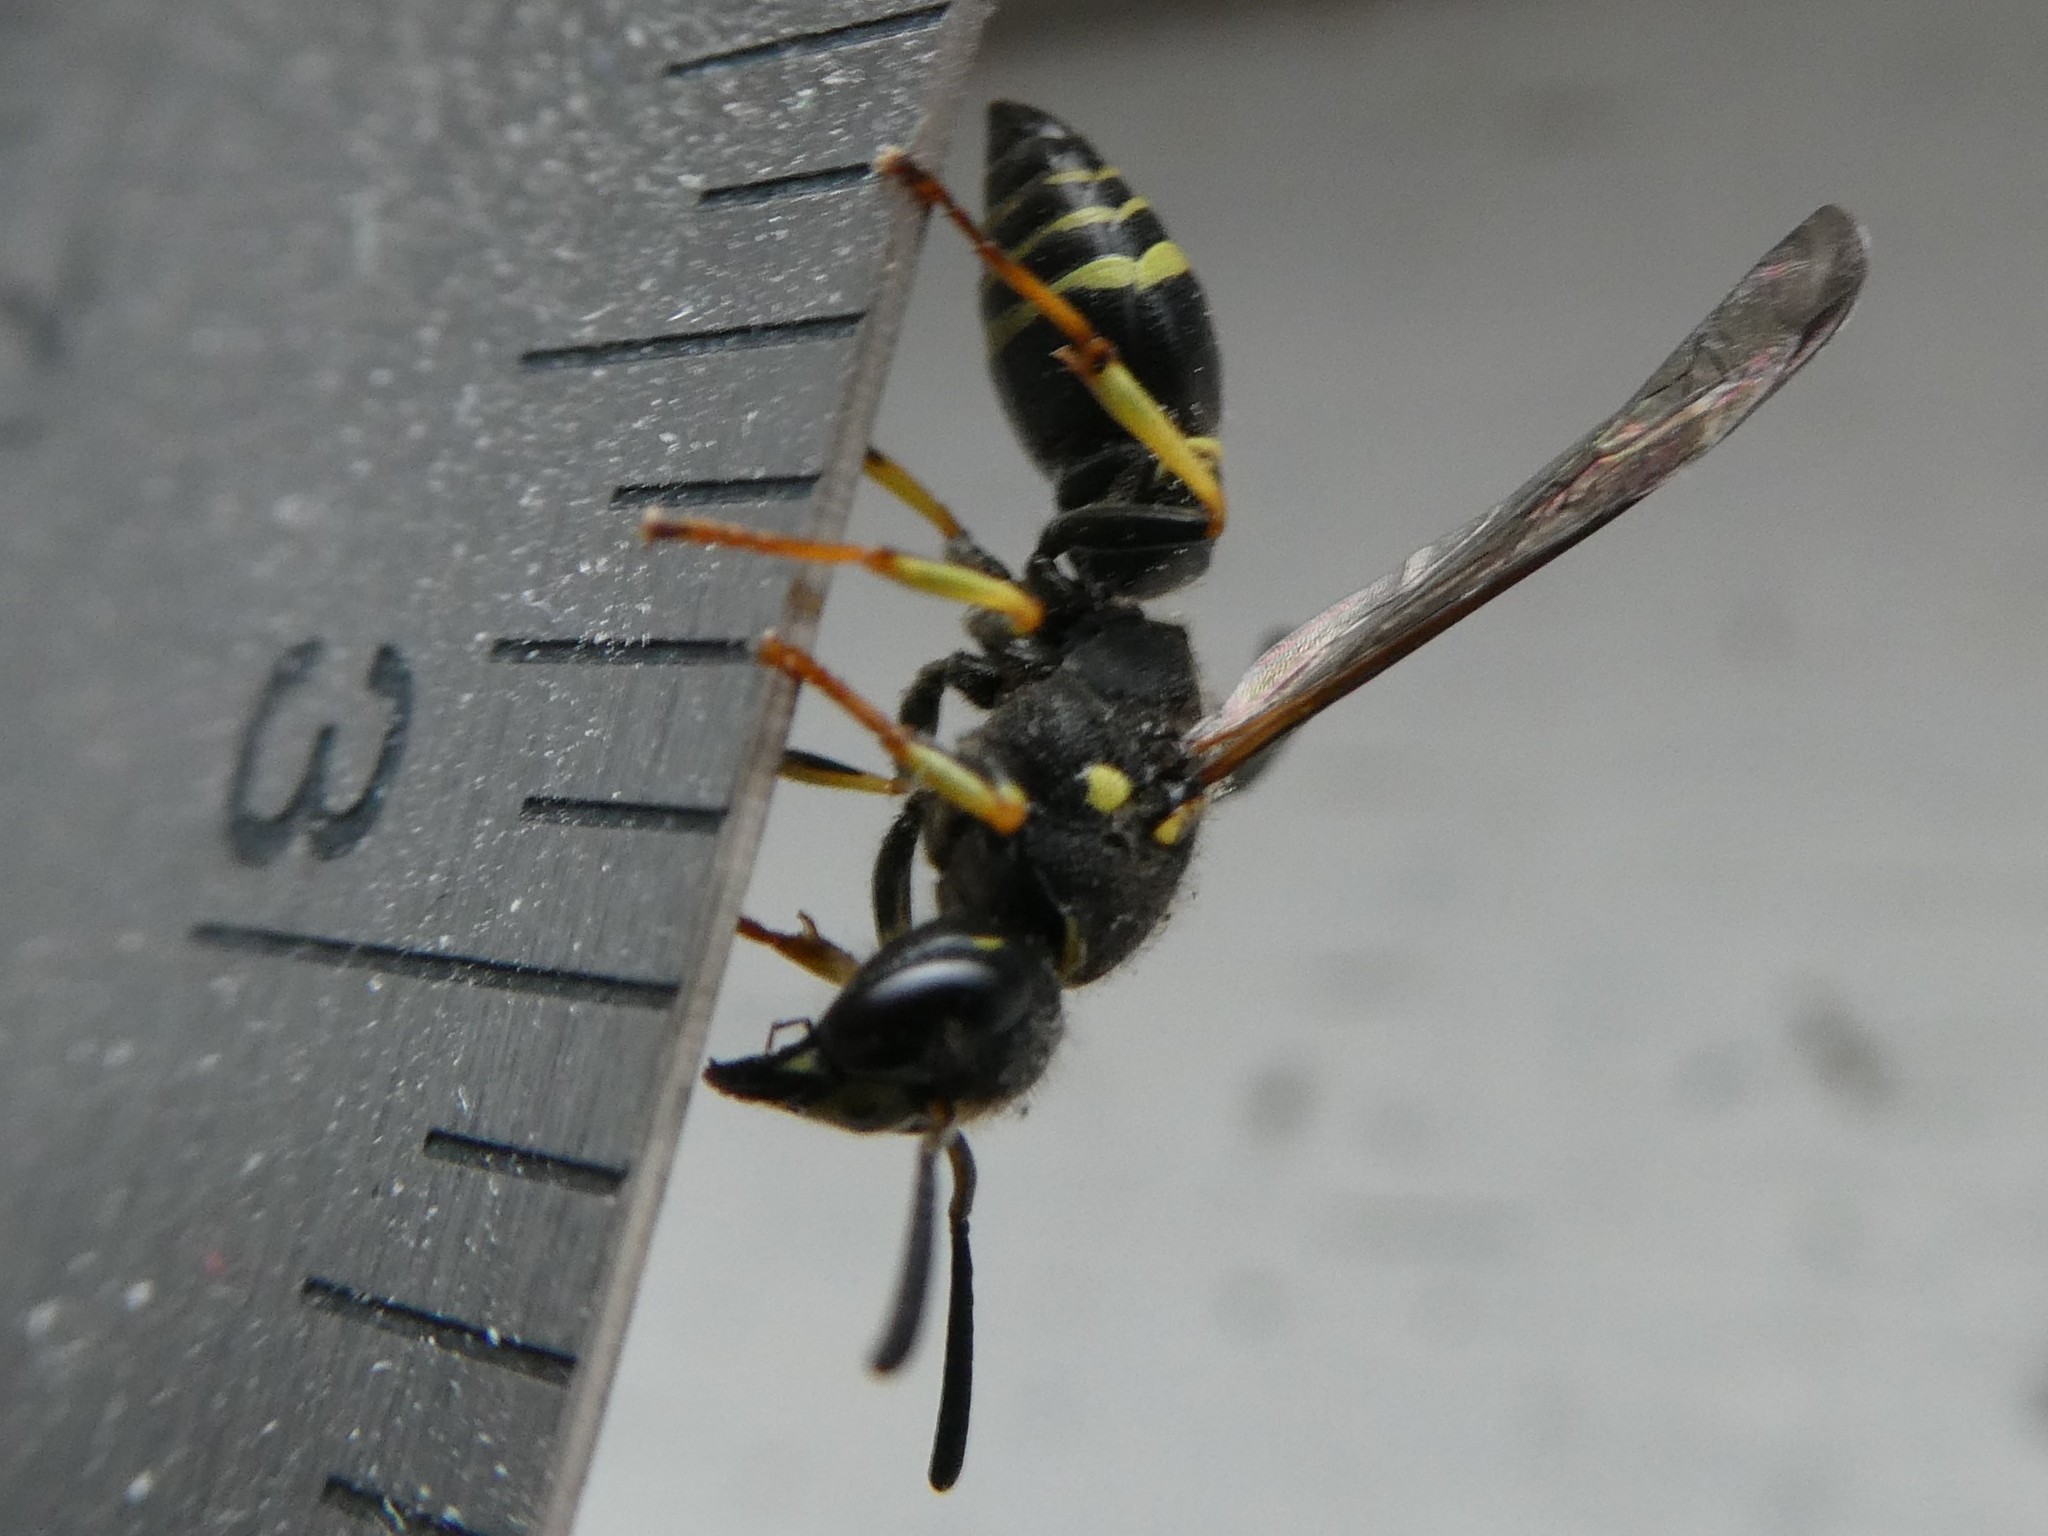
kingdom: Animalia
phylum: Arthropoda
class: Insecta
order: Hymenoptera
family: Vespidae
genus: Ancistrocerus
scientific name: Ancistrocerus adiabatus
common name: Bramble mason wasp
